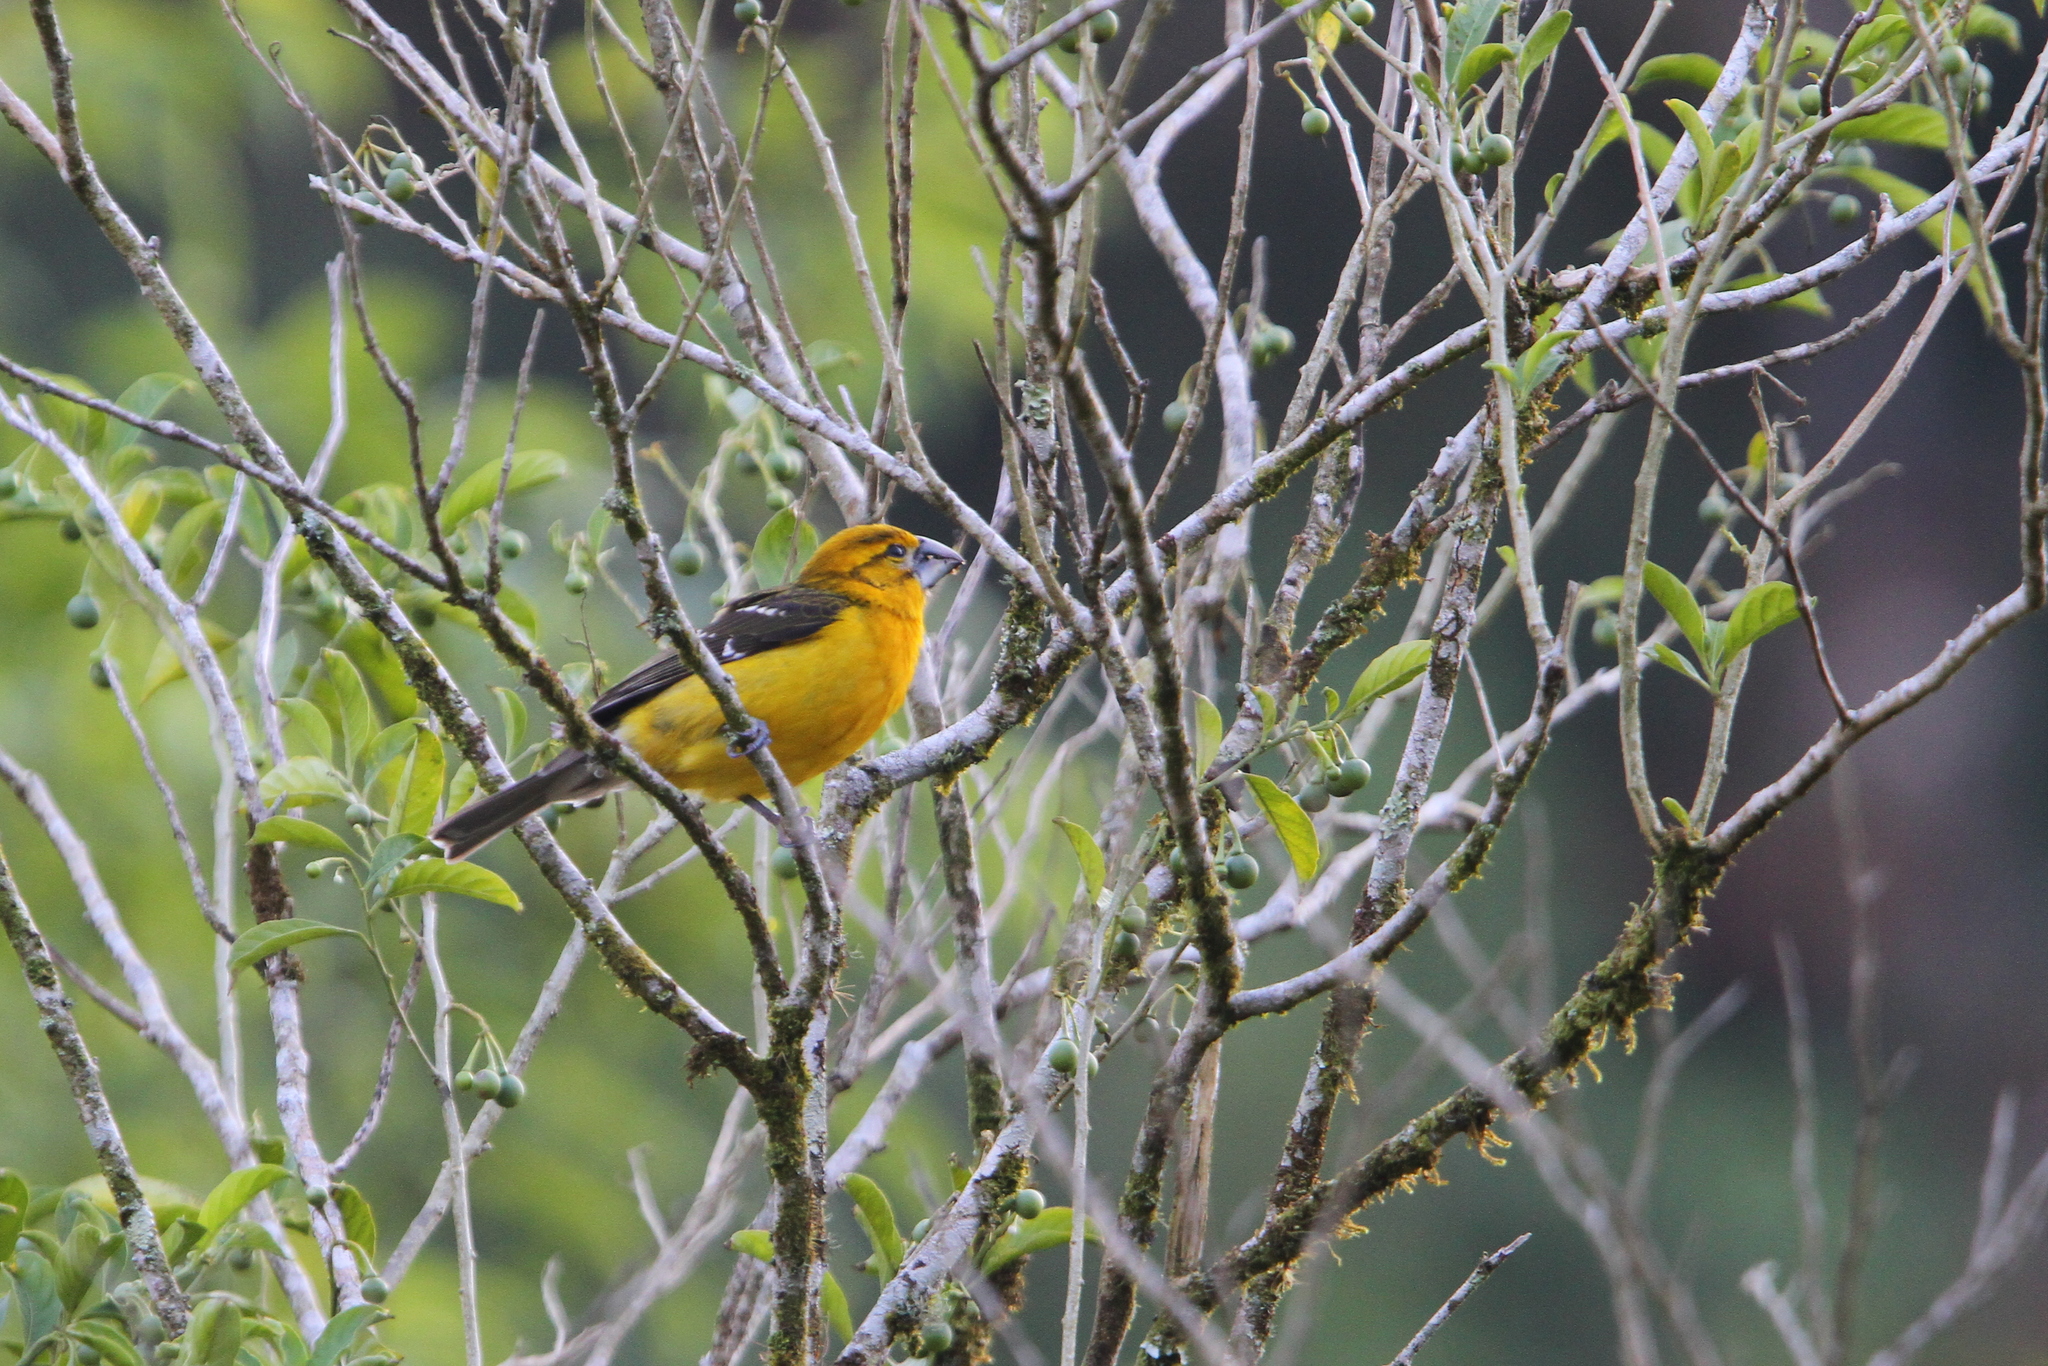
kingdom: Animalia
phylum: Chordata
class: Aves
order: Passeriformes
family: Cardinalidae
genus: Pheucticus
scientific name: Pheucticus chrysopeplus
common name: Yellow grosbeak
